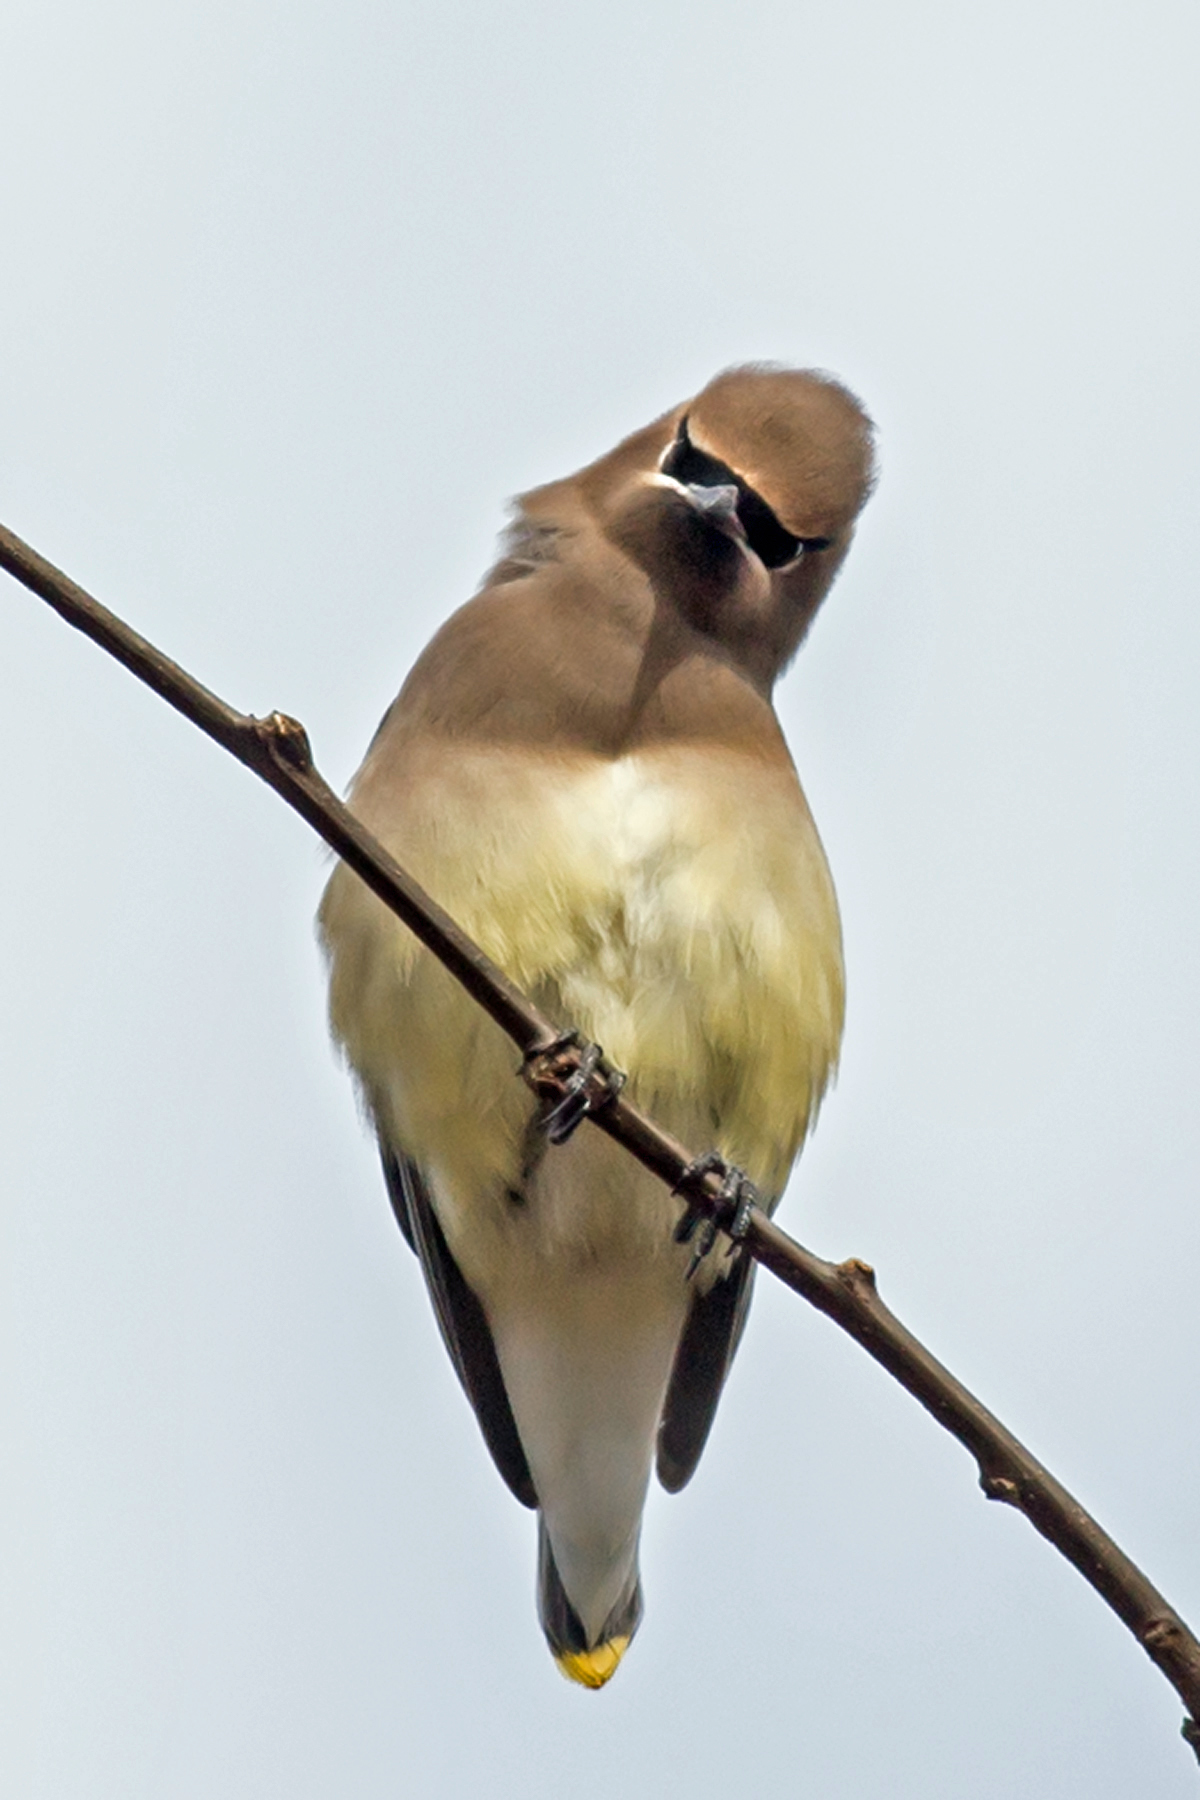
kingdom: Animalia
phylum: Chordata
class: Aves
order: Passeriformes
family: Bombycillidae
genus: Bombycilla
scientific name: Bombycilla cedrorum
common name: Cedar waxwing
